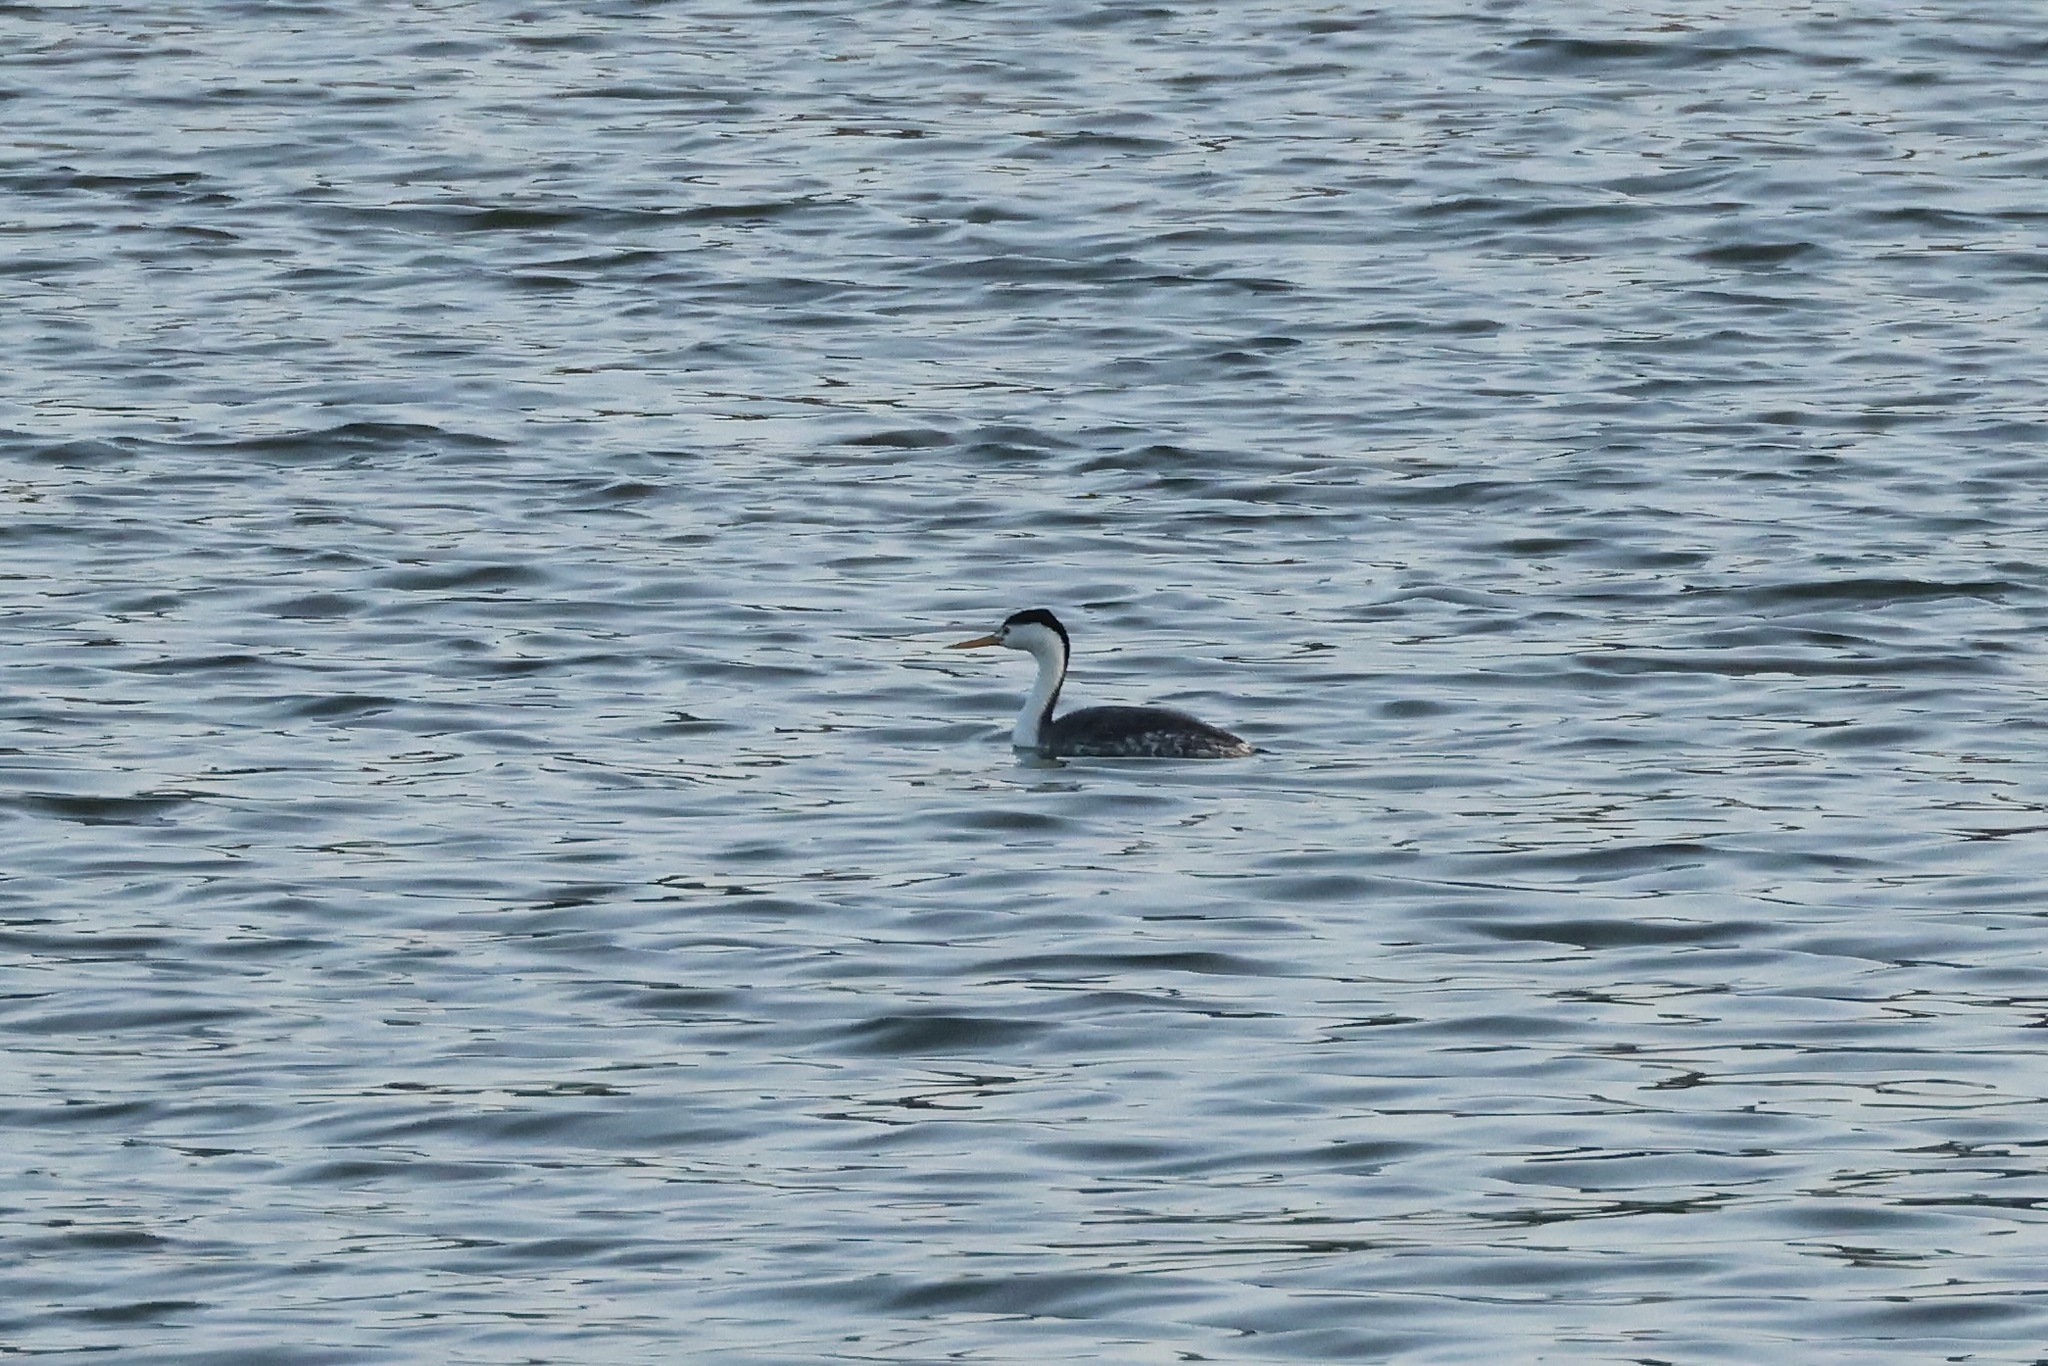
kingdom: Animalia
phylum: Chordata
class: Aves
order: Podicipediformes
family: Podicipedidae
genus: Aechmophorus
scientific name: Aechmophorus clarkii
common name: Clark's grebe
